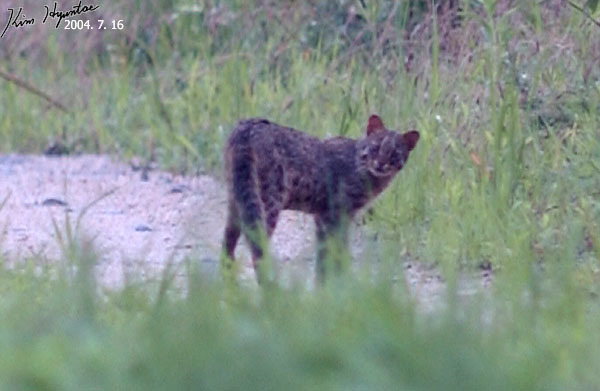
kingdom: Animalia
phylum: Chordata
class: Mammalia
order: Carnivora
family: Felidae
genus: Prionailurus
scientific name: Prionailurus bengalensis
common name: Leopard cat
